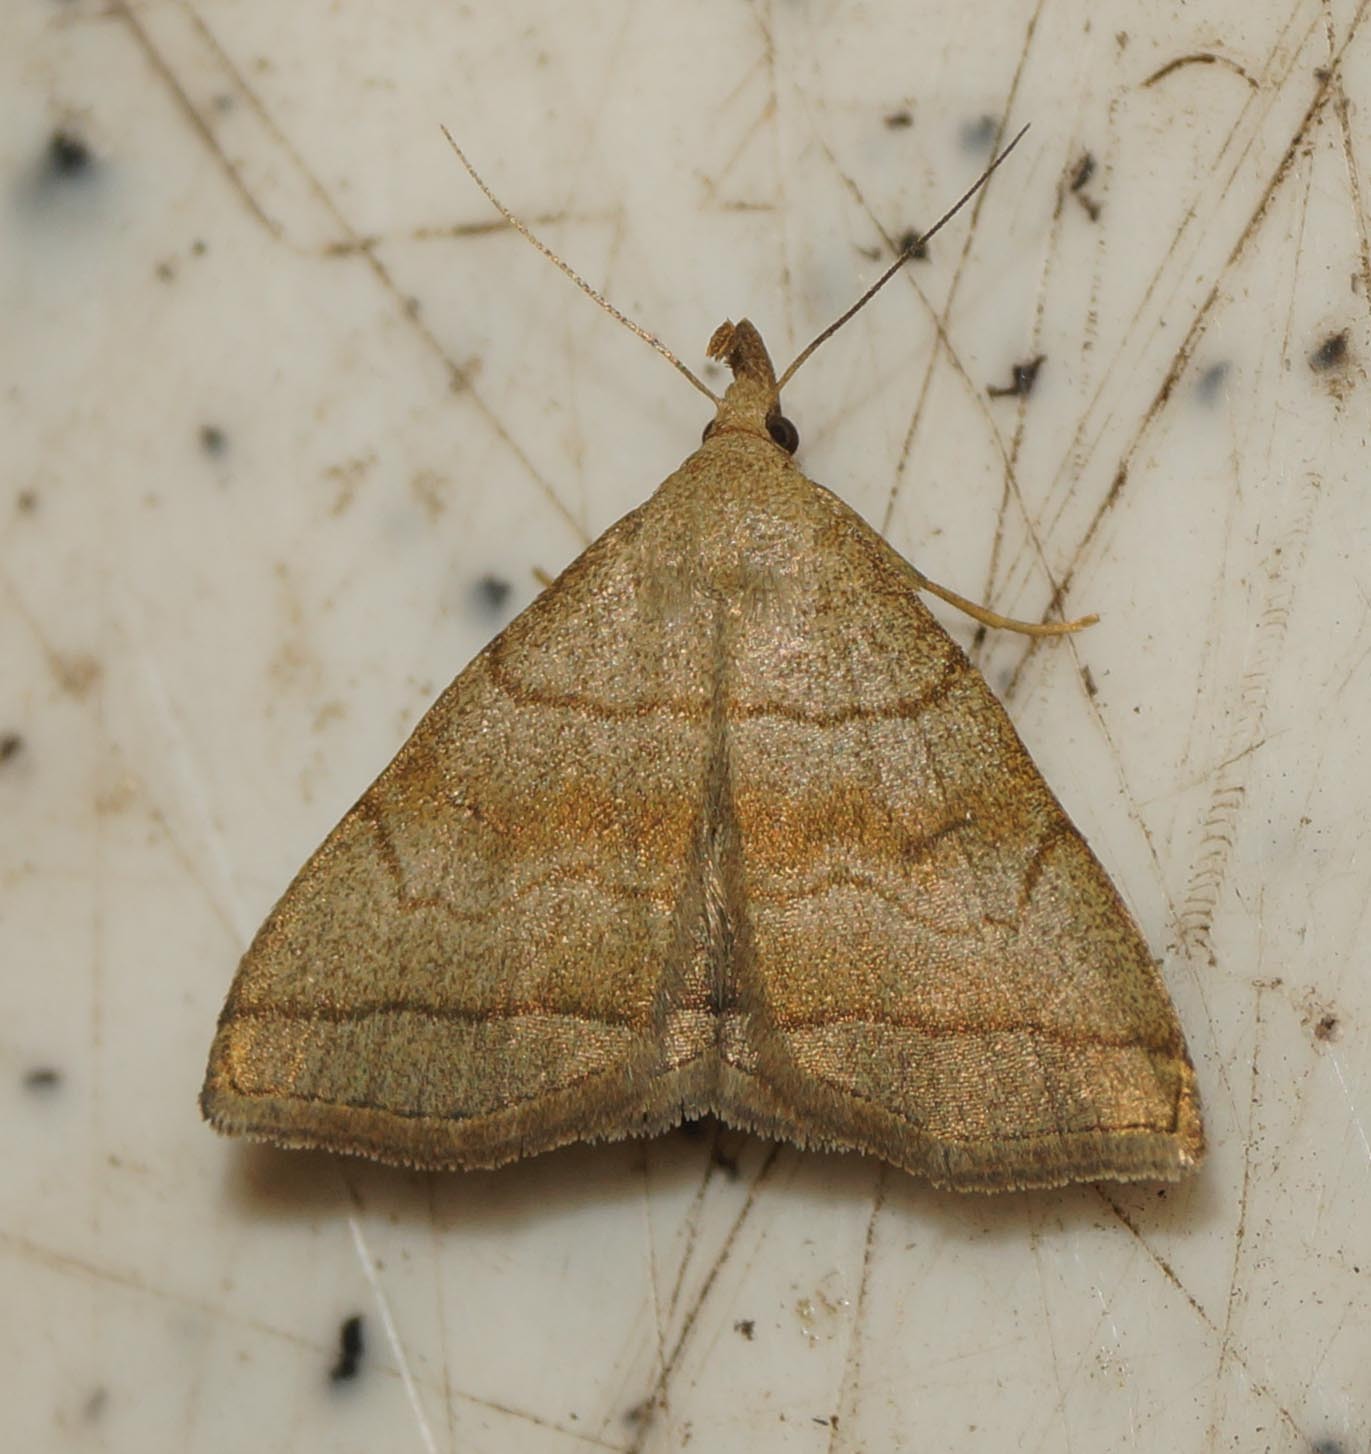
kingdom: Animalia
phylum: Arthropoda
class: Insecta
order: Lepidoptera
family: Erebidae
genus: Herminia
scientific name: Herminia tarsicrinalis
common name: Shaded fan-foot
